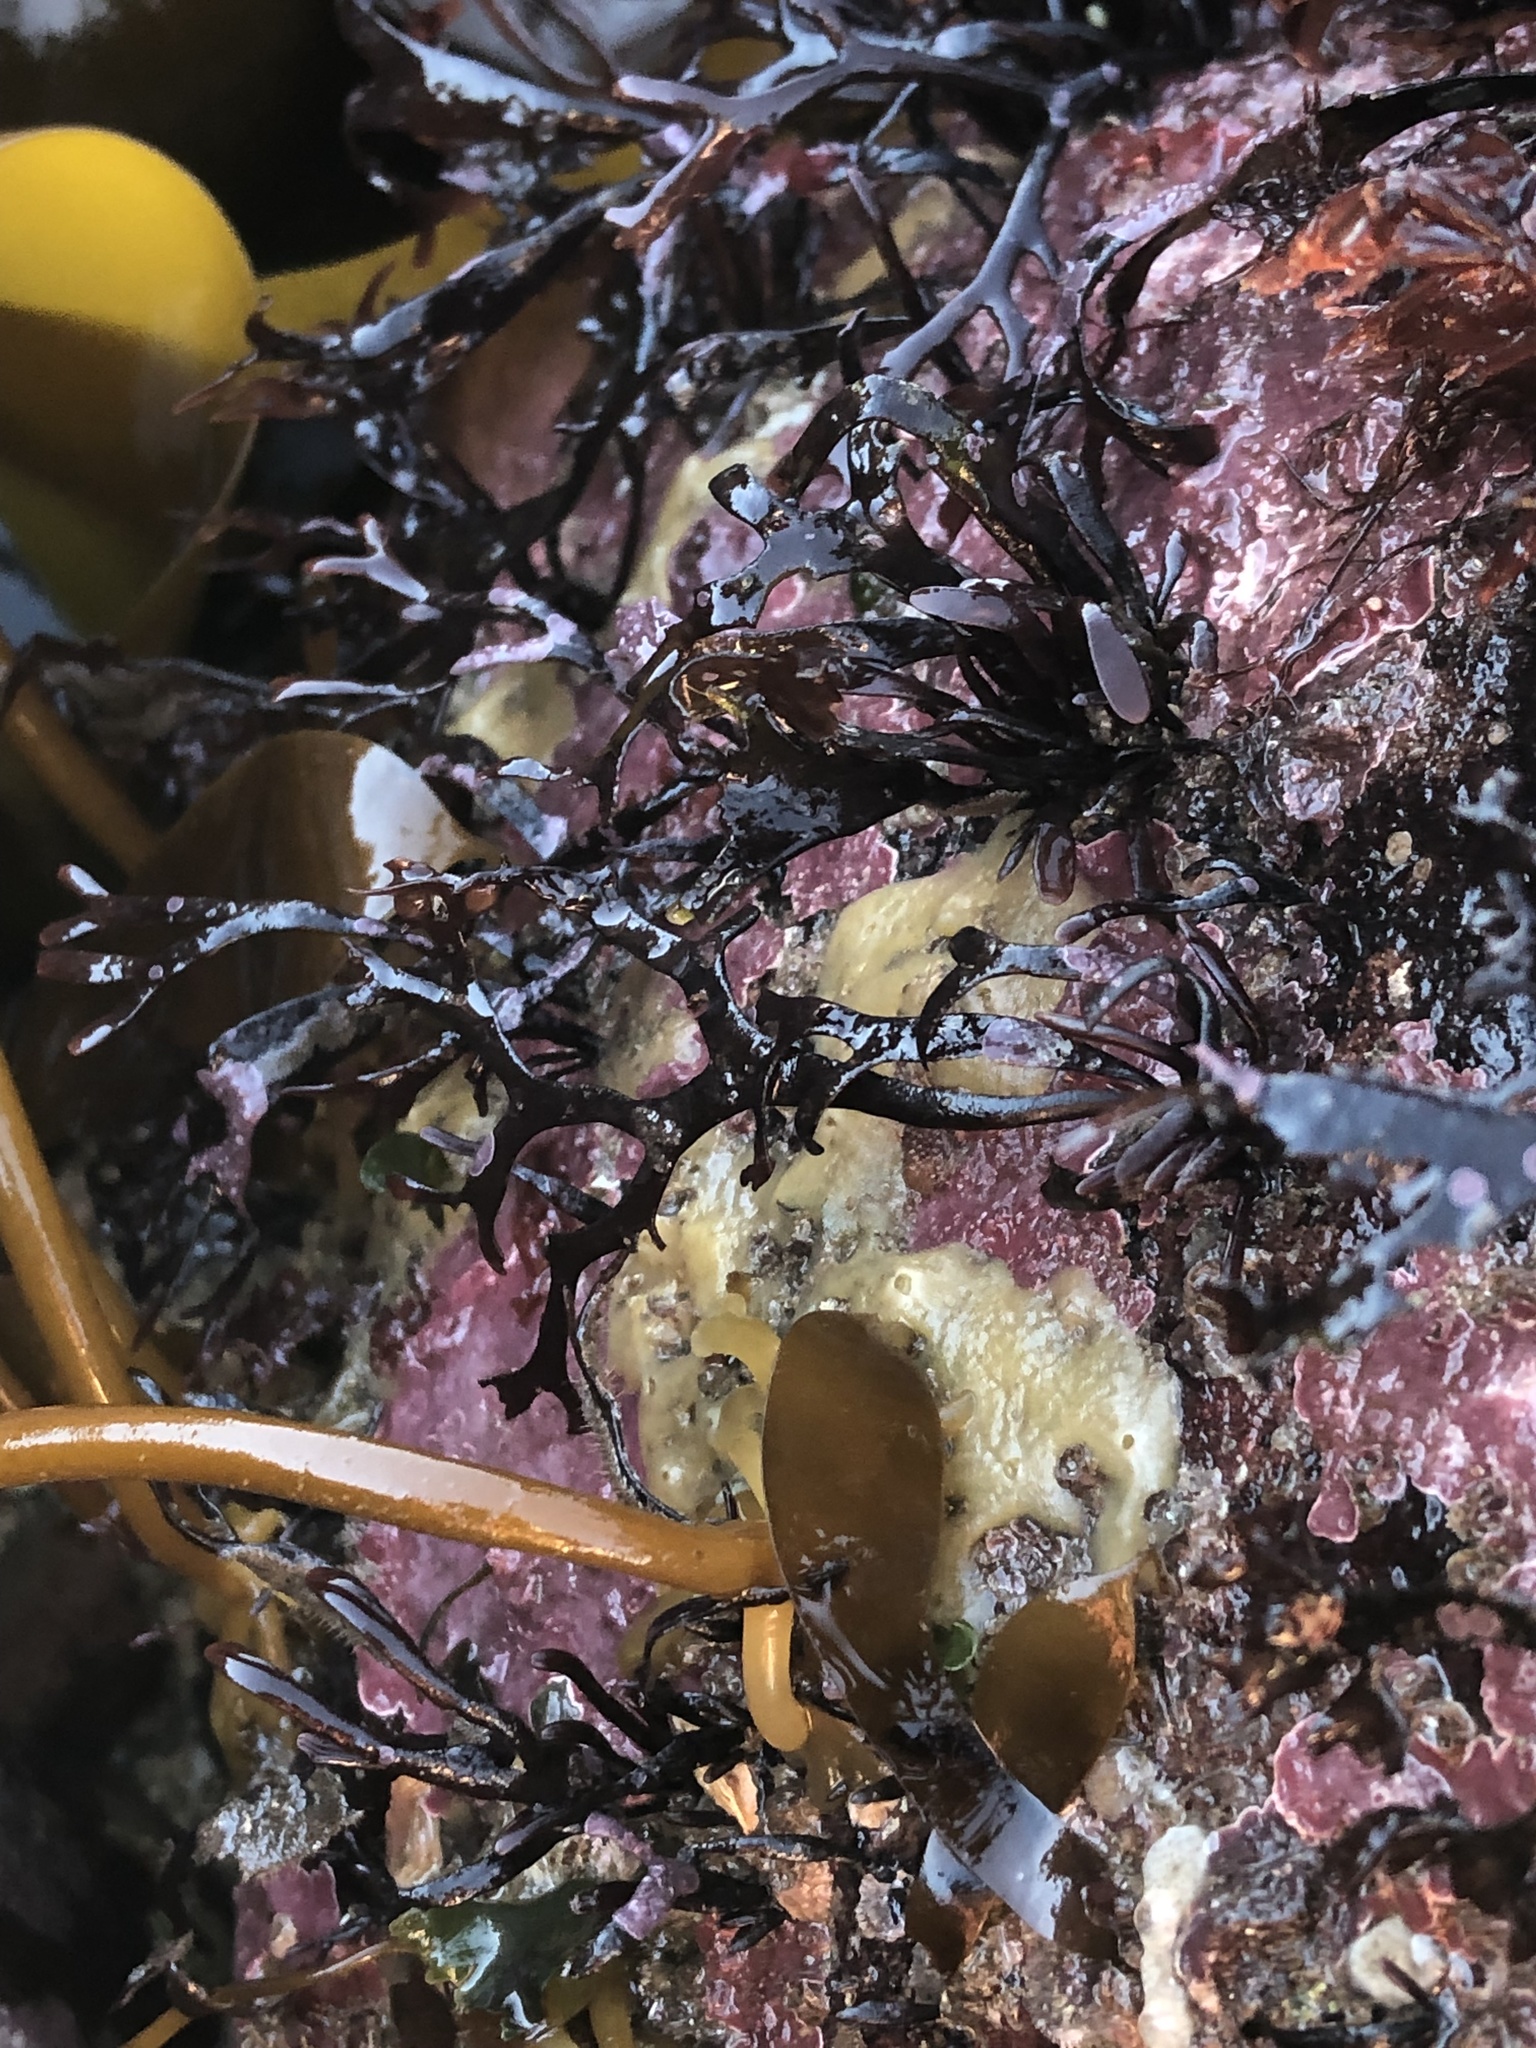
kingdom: Animalia
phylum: Porifera
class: Demospongiae
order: Suberitida
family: Halichondriidae
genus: Halichondria
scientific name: Halichondria panicea
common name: Breadcrumb sponge
